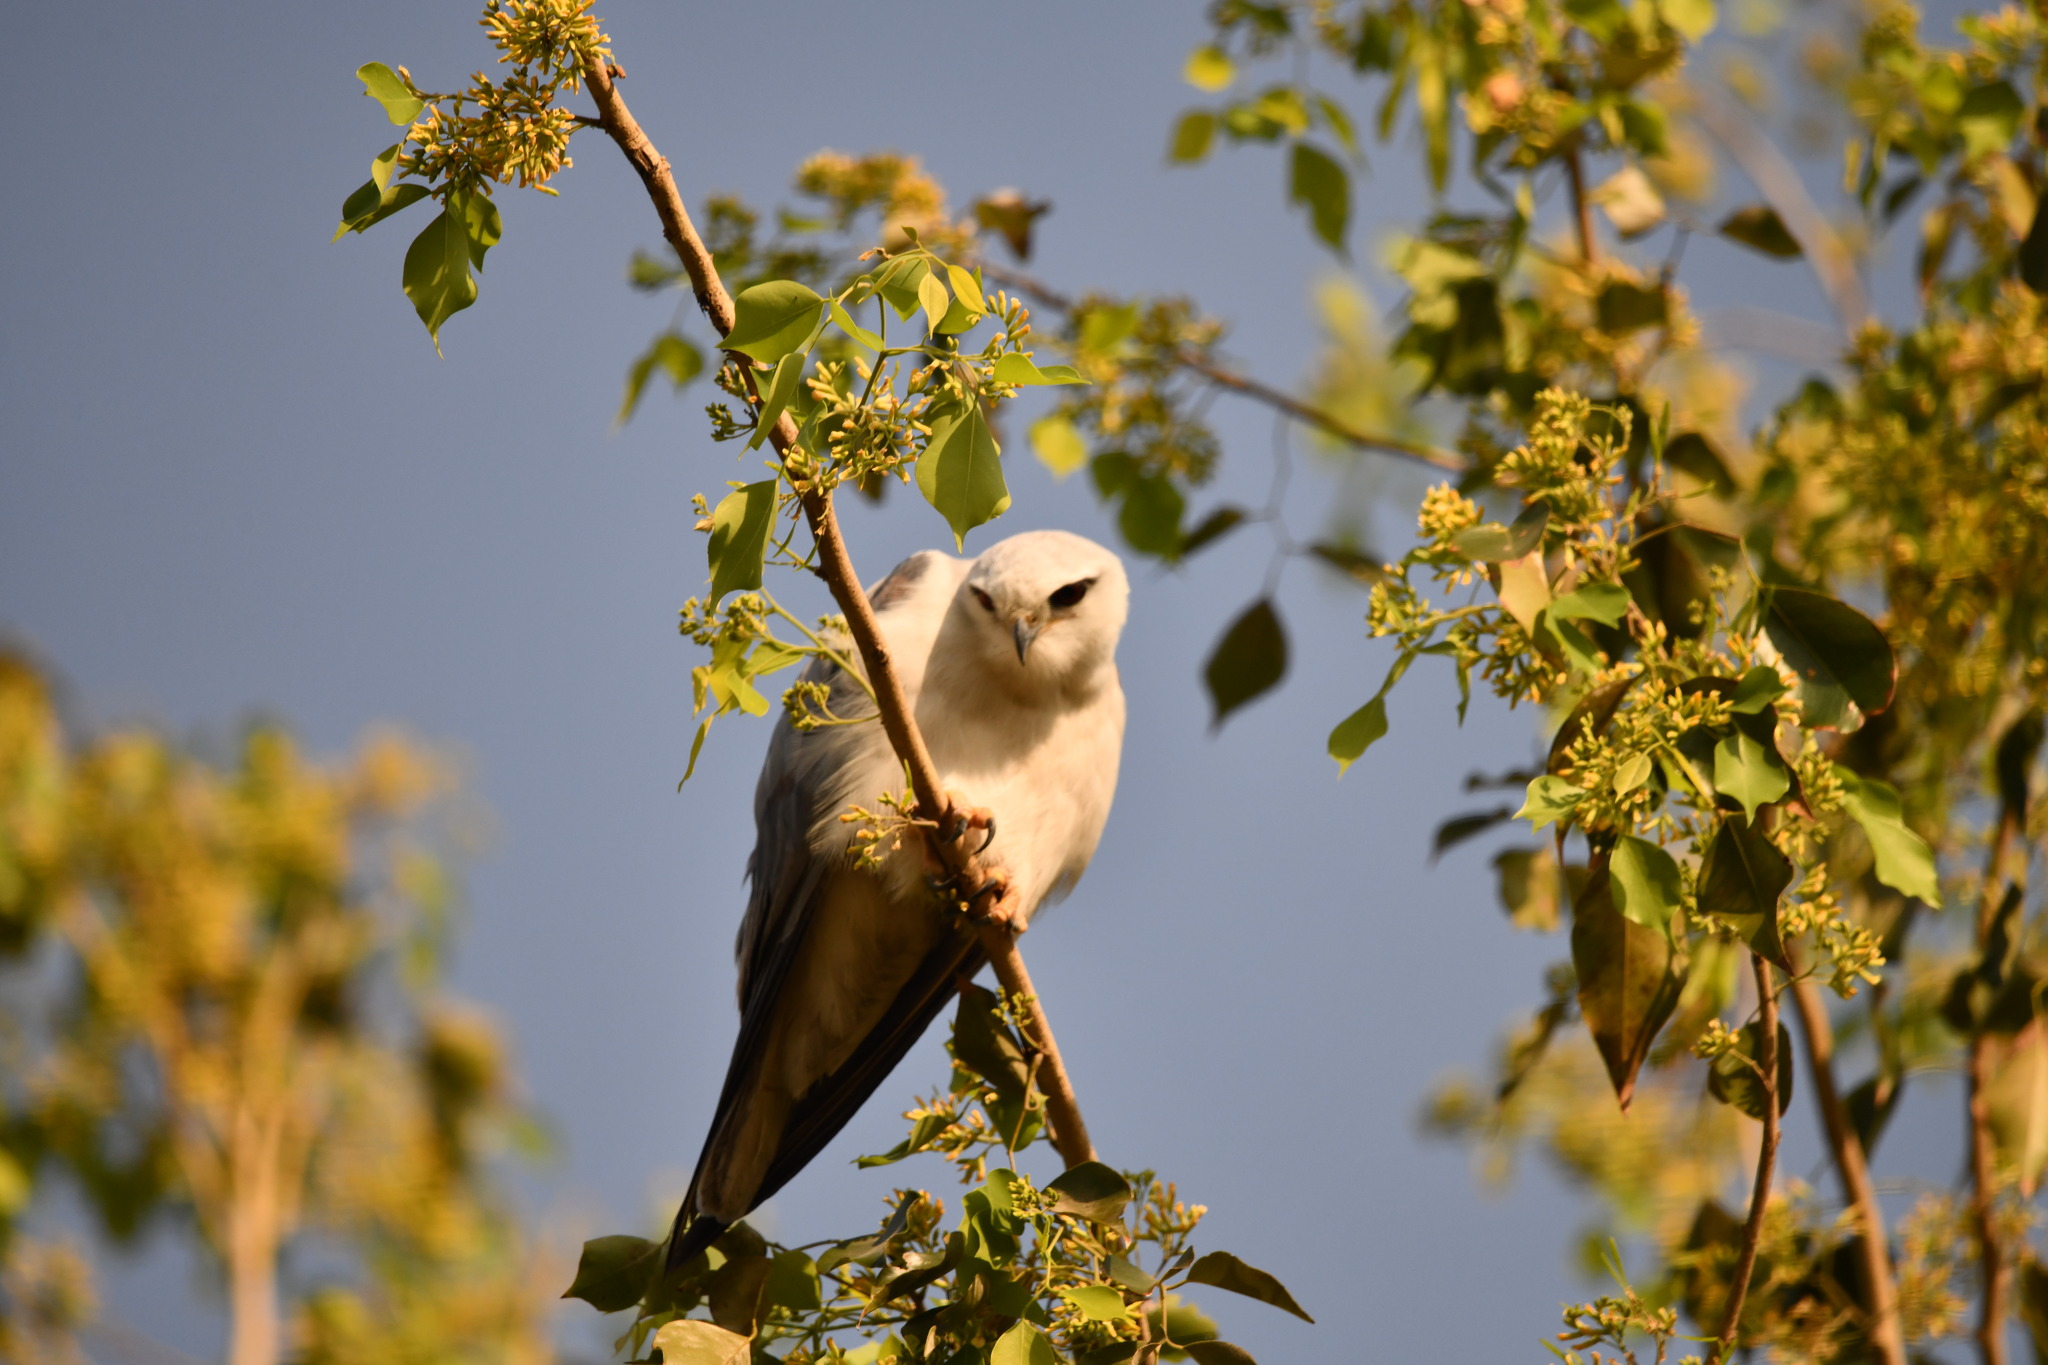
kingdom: Animalia
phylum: Chordata
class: Aves
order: Accipitriformes
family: Accipitridae
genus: Elanus
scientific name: Elanus caeruleus
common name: Black-winged kite
